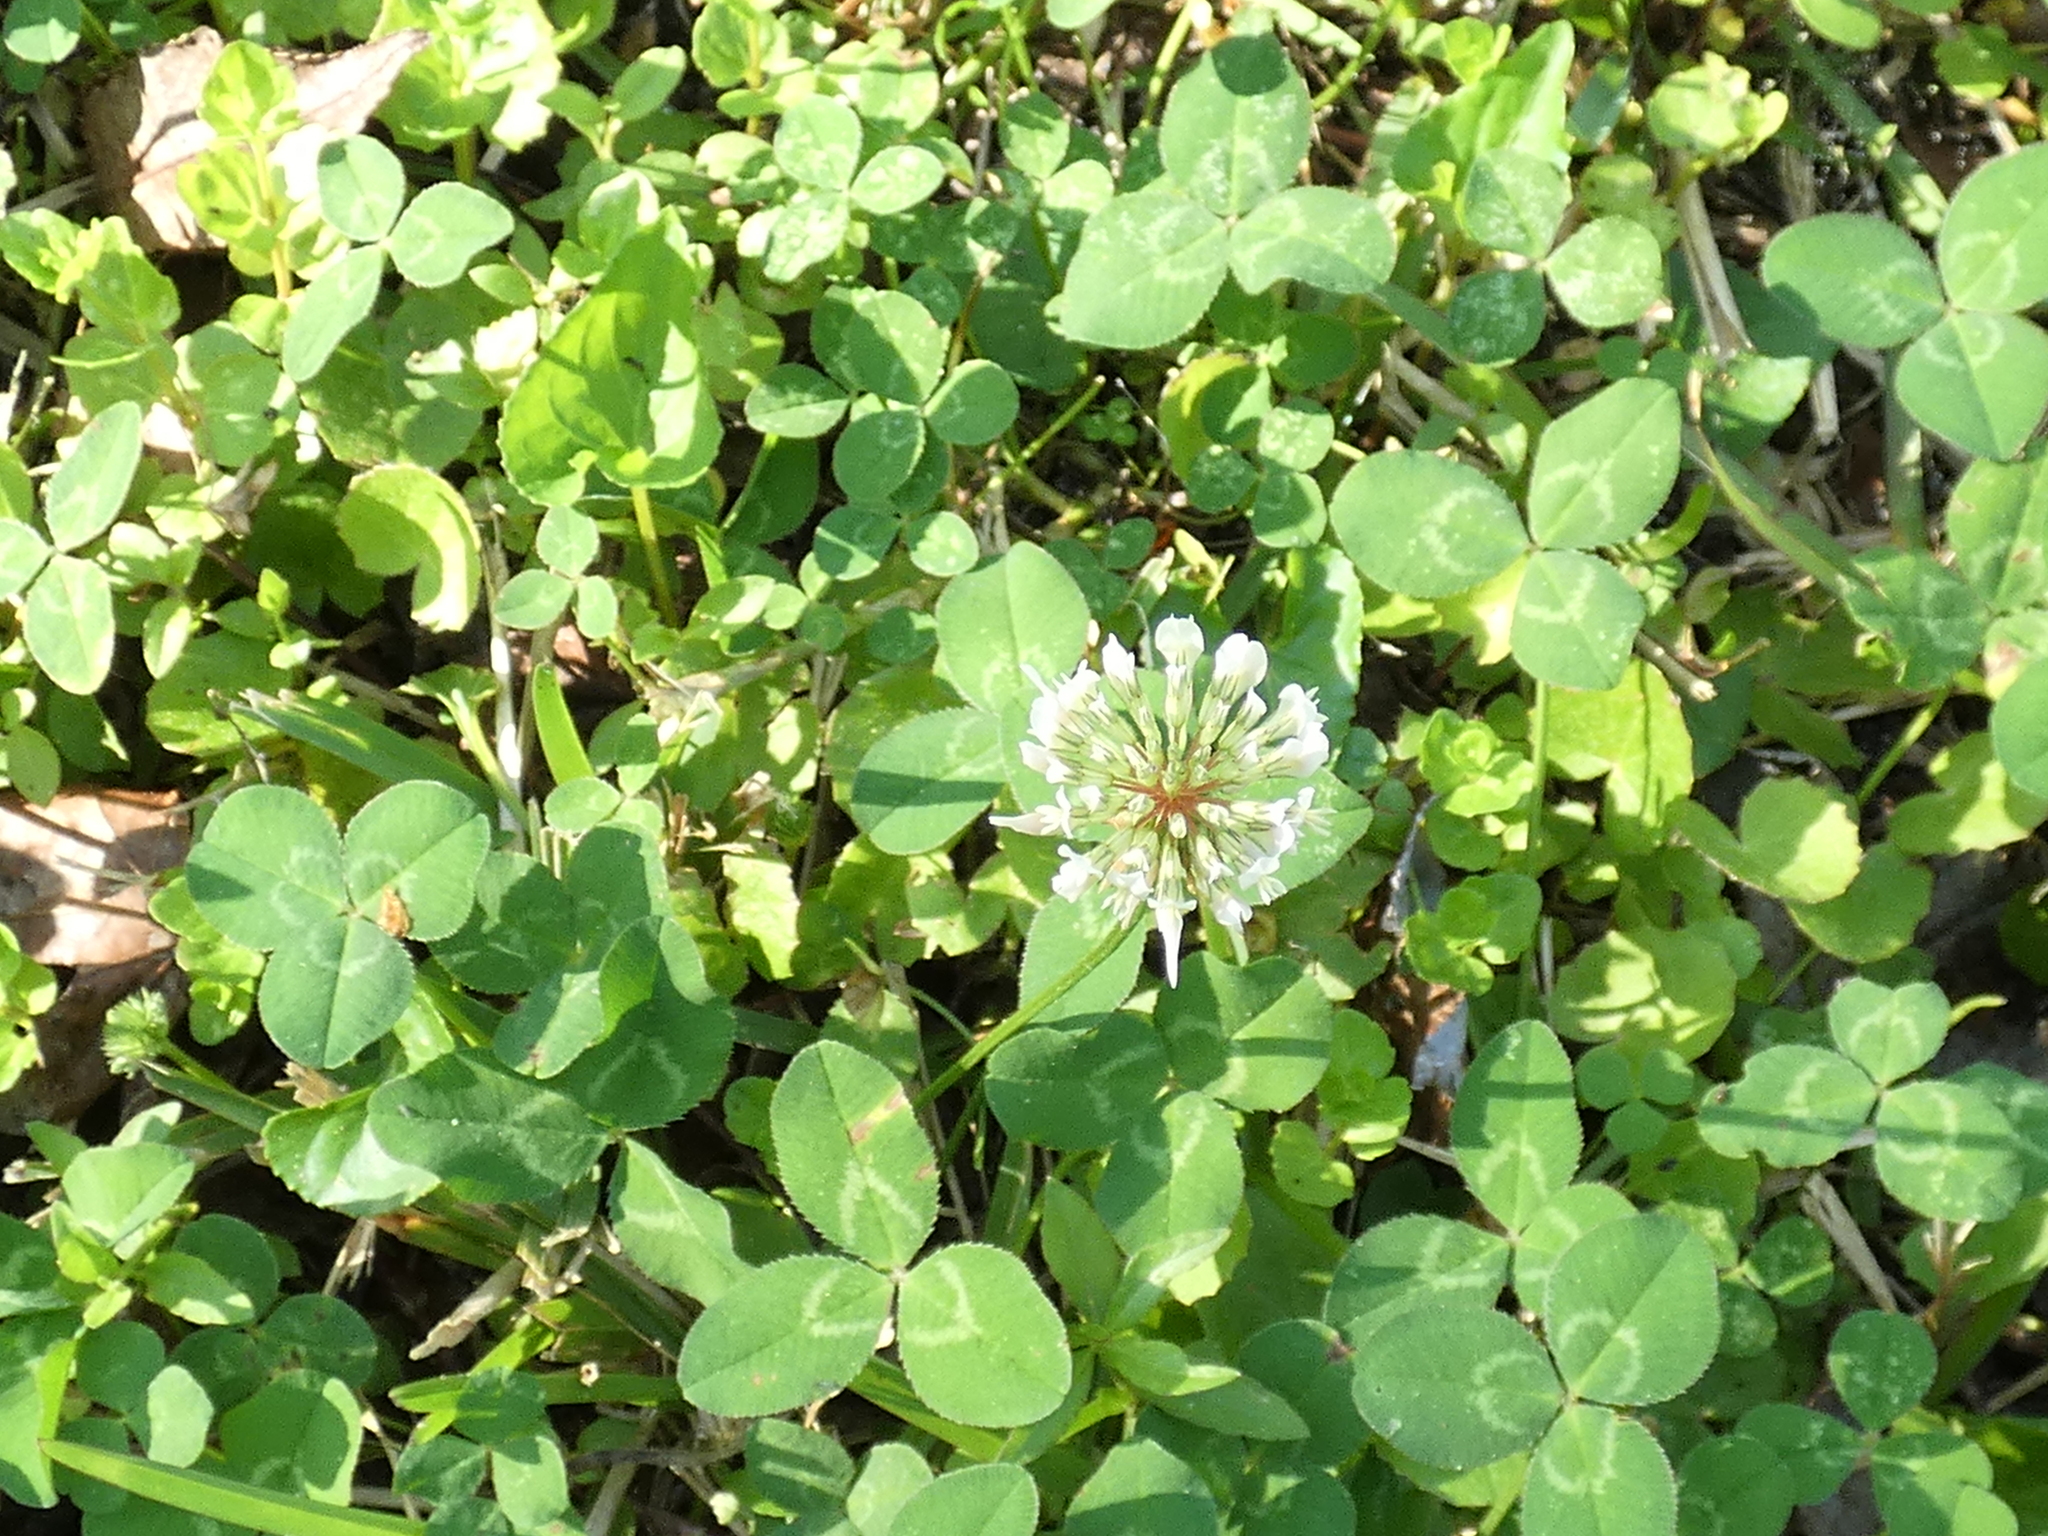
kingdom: Plantae
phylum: Tracheophyta
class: Magnoliopsida
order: Fabales
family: Fabaceae
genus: Trifolium
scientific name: Trifolium repens
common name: White clover
